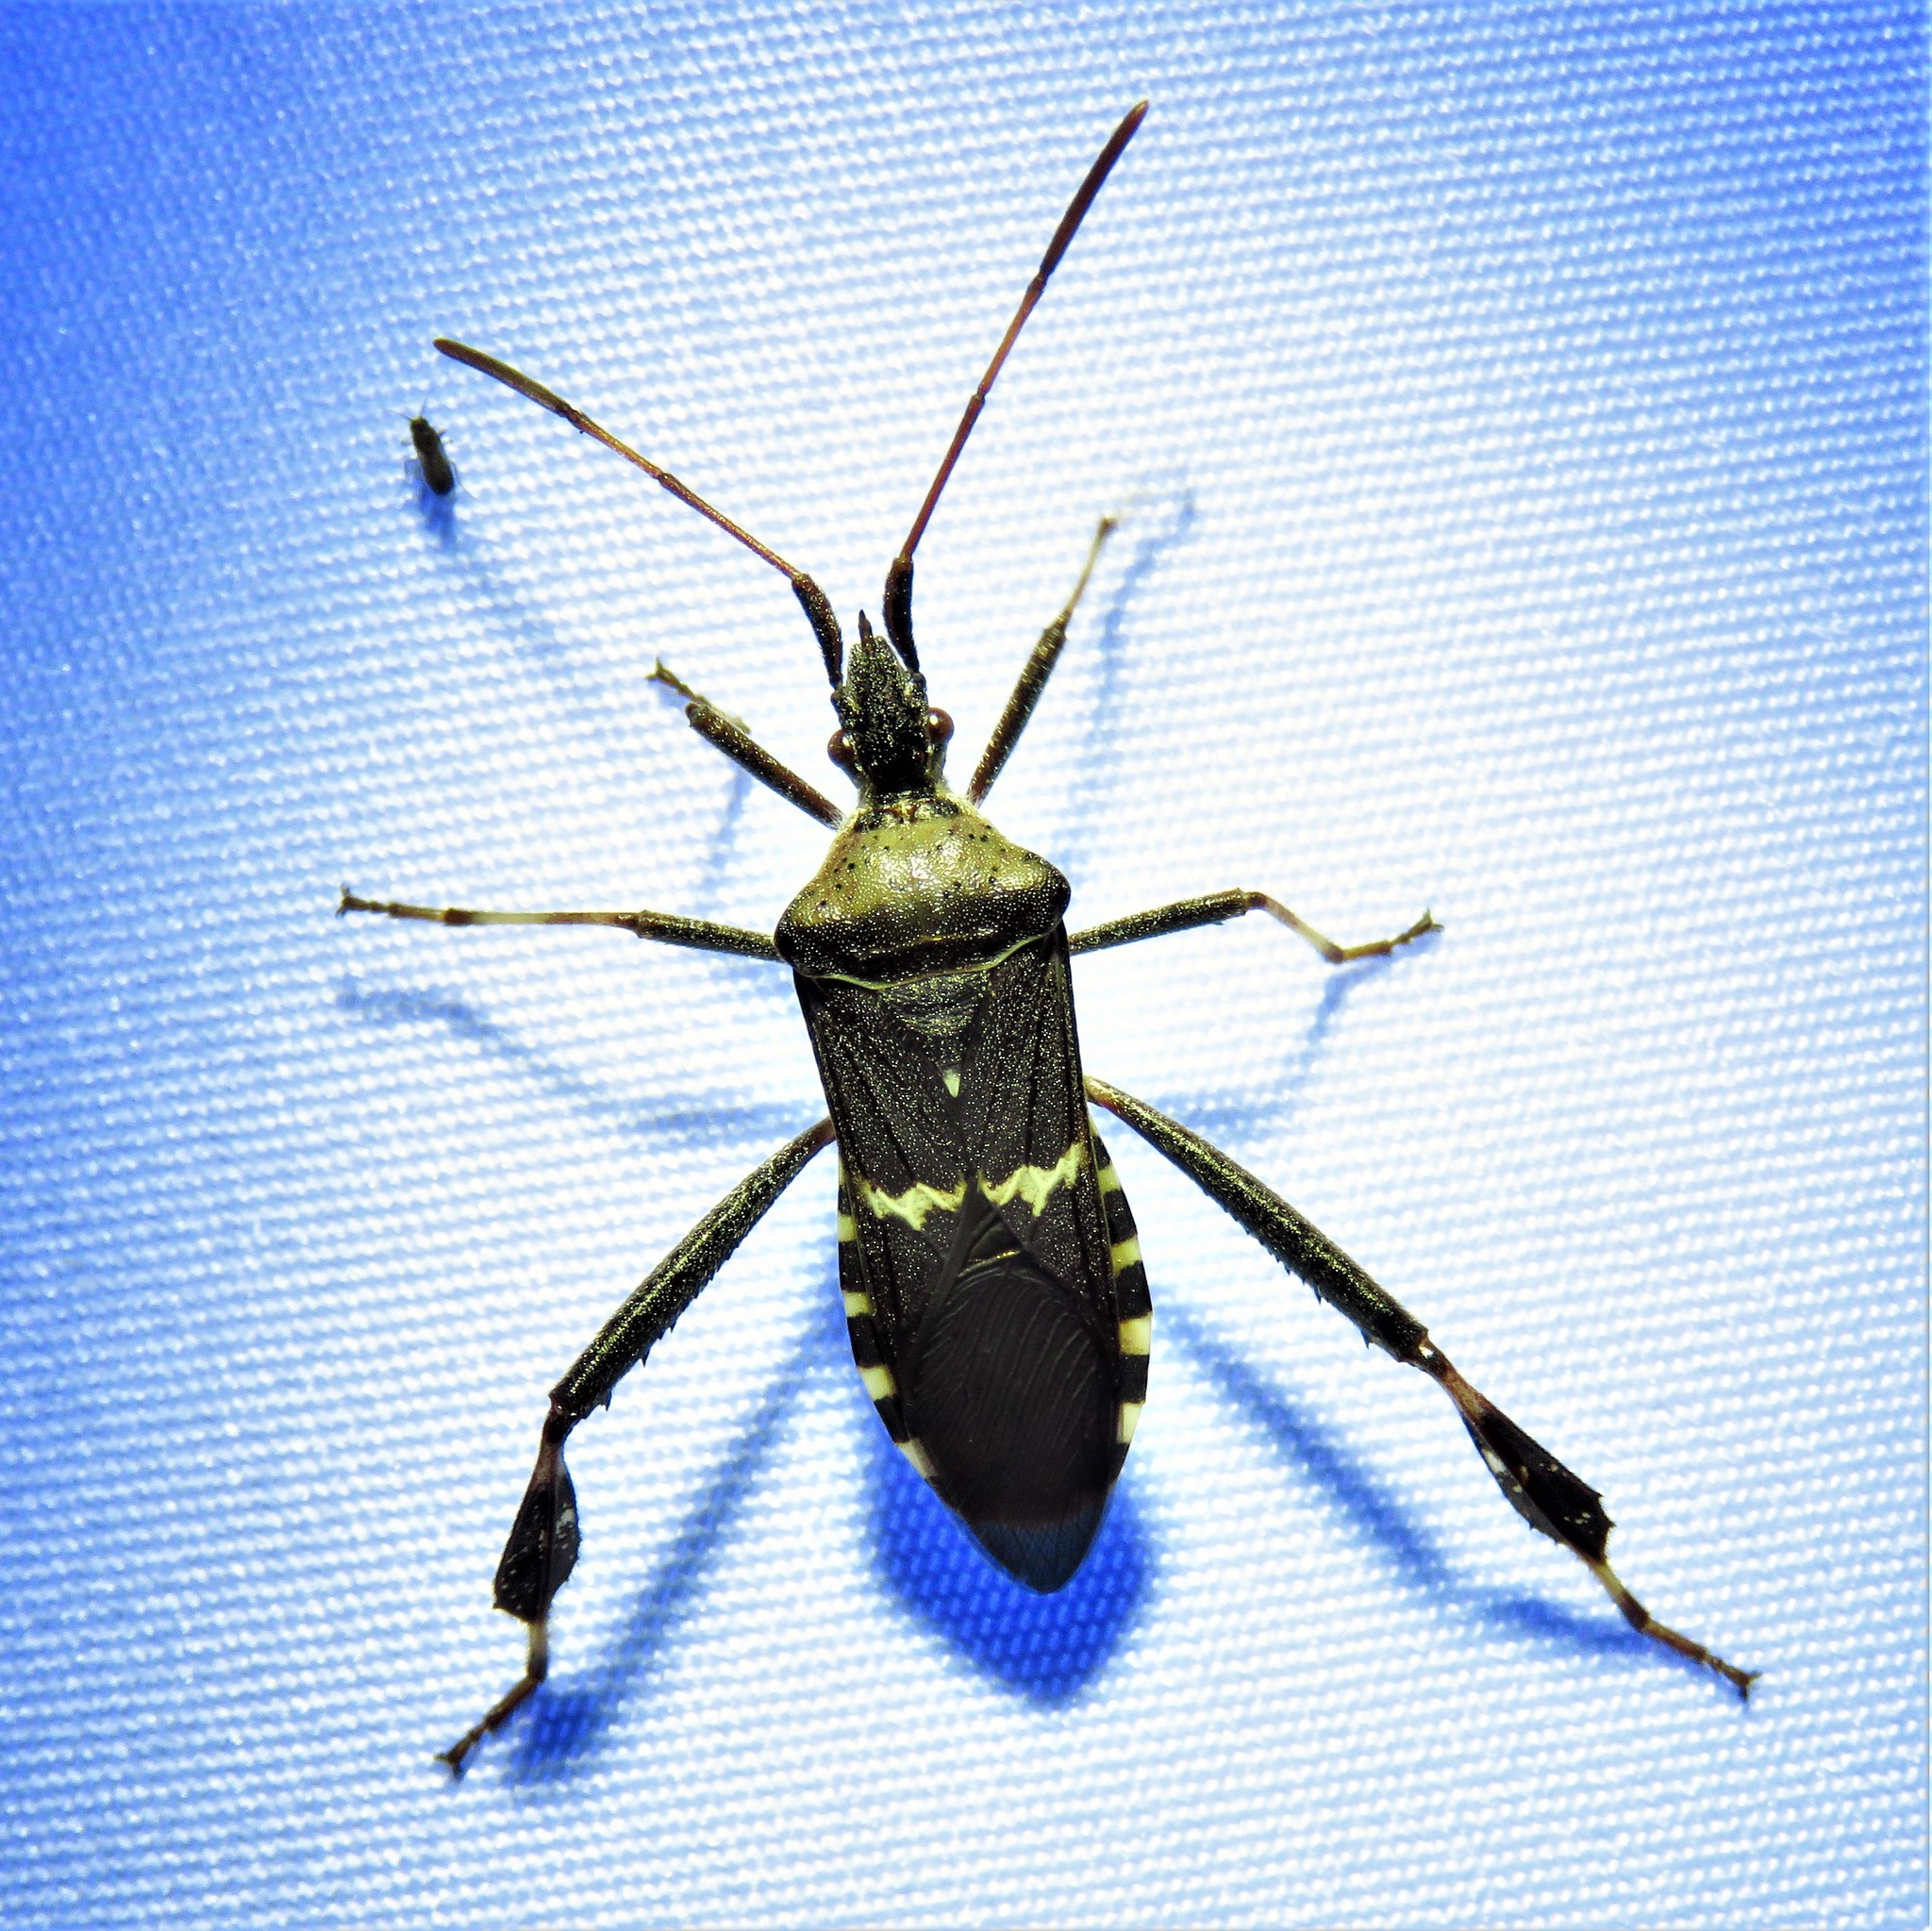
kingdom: Animalia
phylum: Arthropoda
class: Insecta
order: Hemiptera
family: Coreidae
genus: Leptoglossus
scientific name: Leptoglossus clypealis
